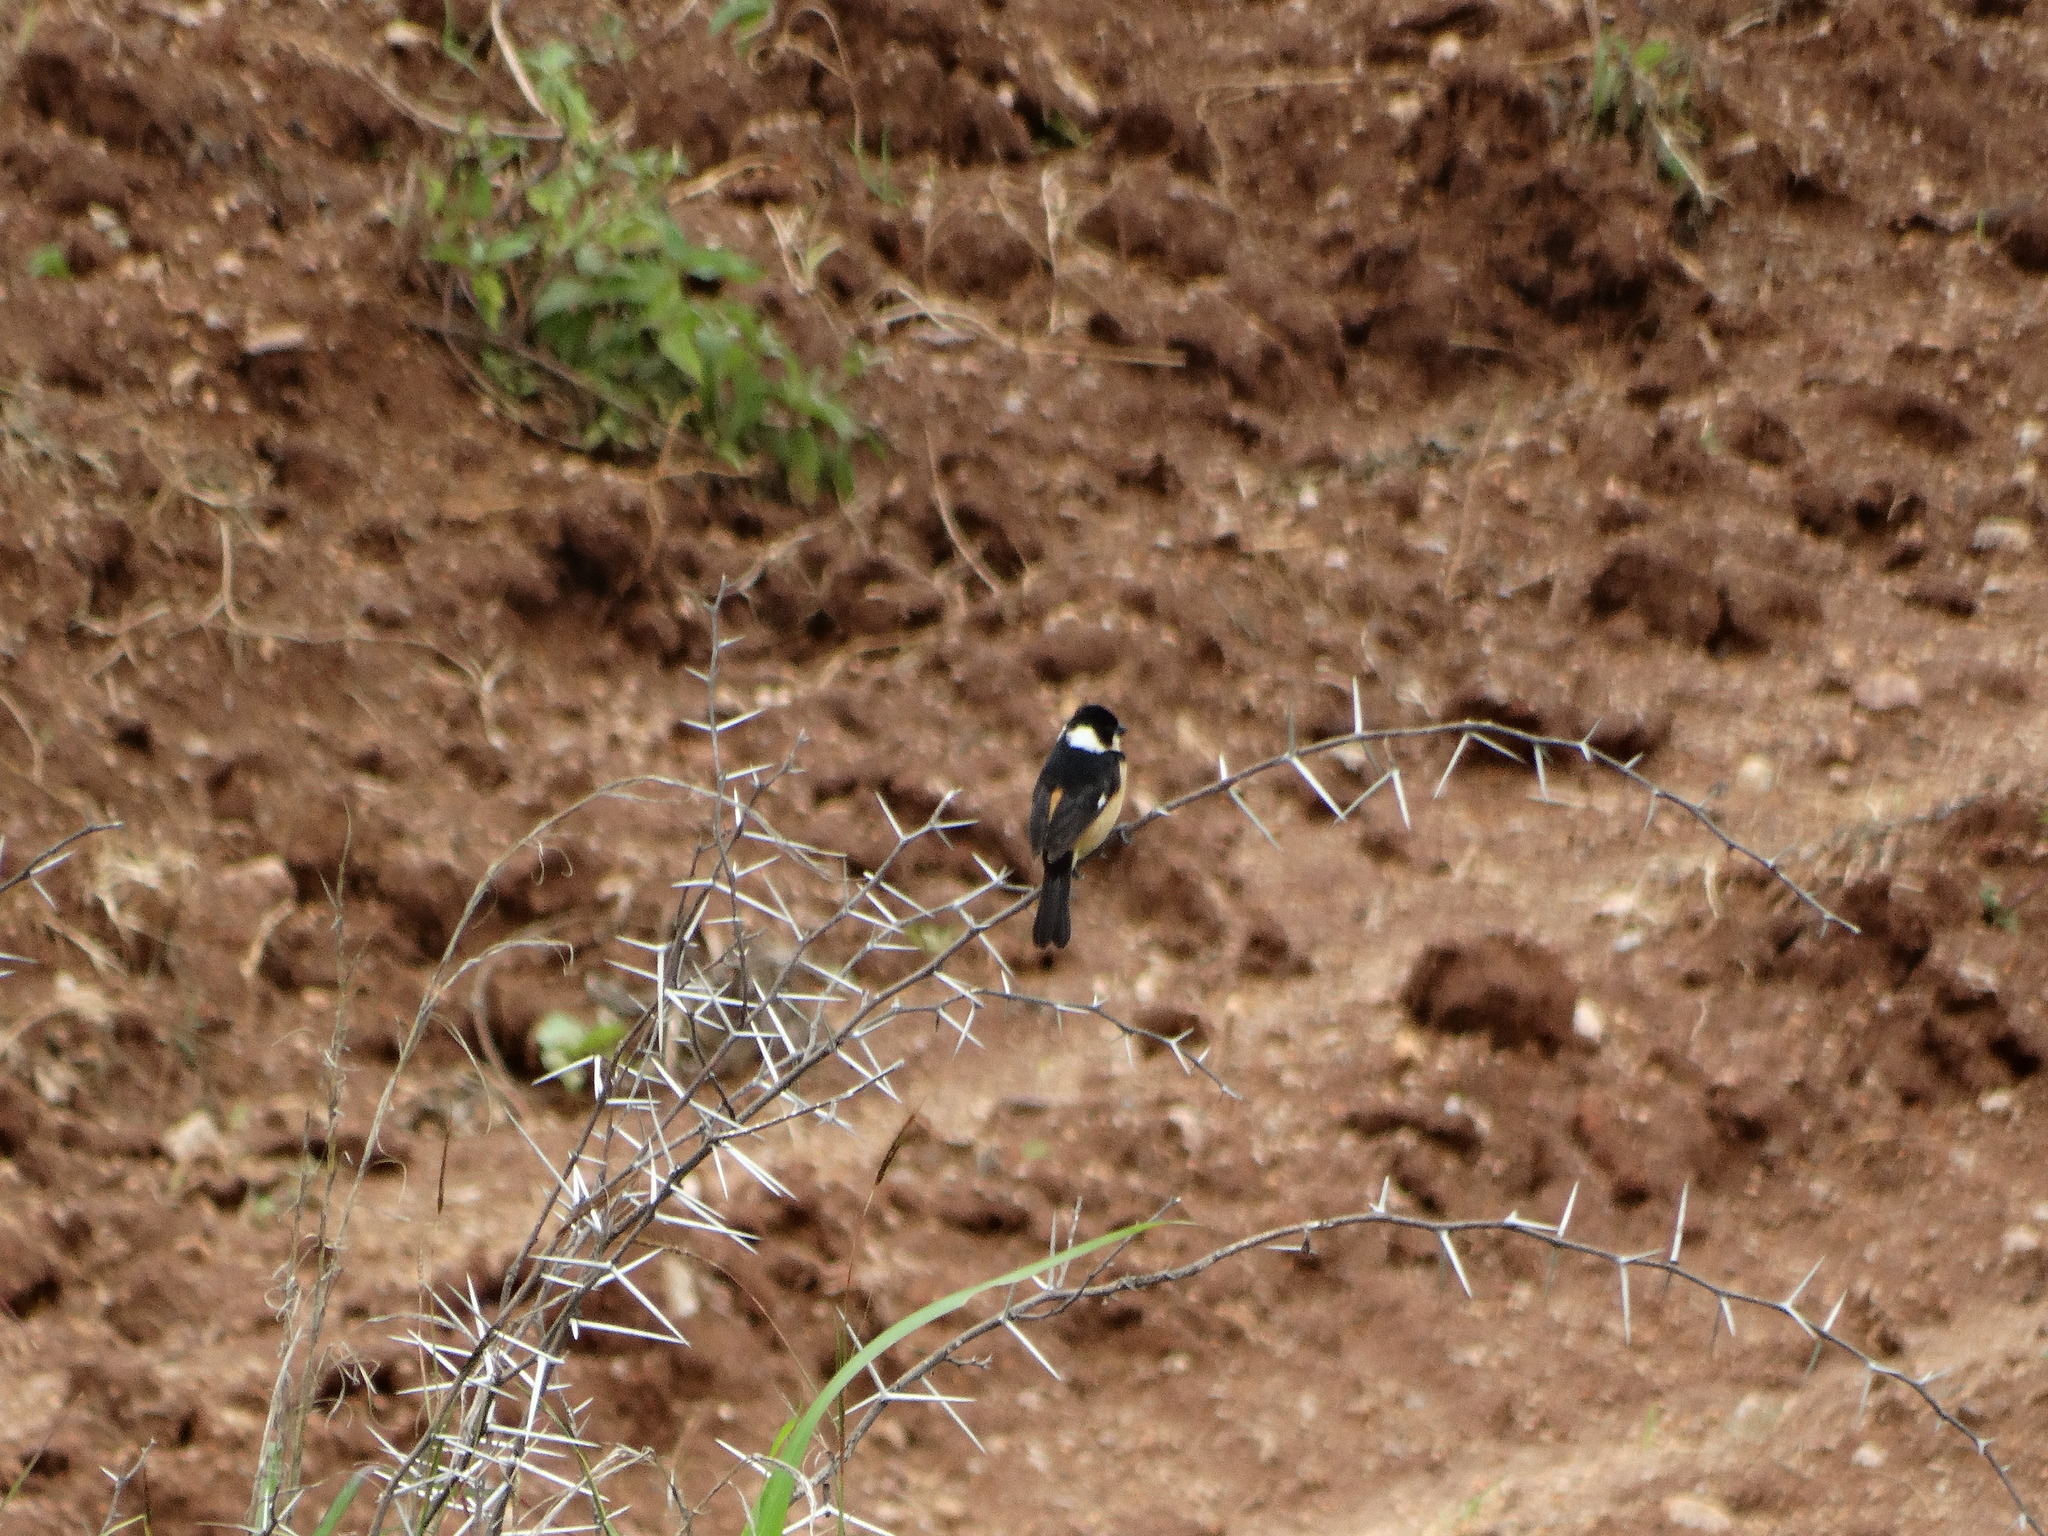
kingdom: Animalia
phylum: Chordata
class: Aves
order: Passeriformes
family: Thraupidae
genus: Sporophila
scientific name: Sporophila torqueola
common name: White-collared seedeater
